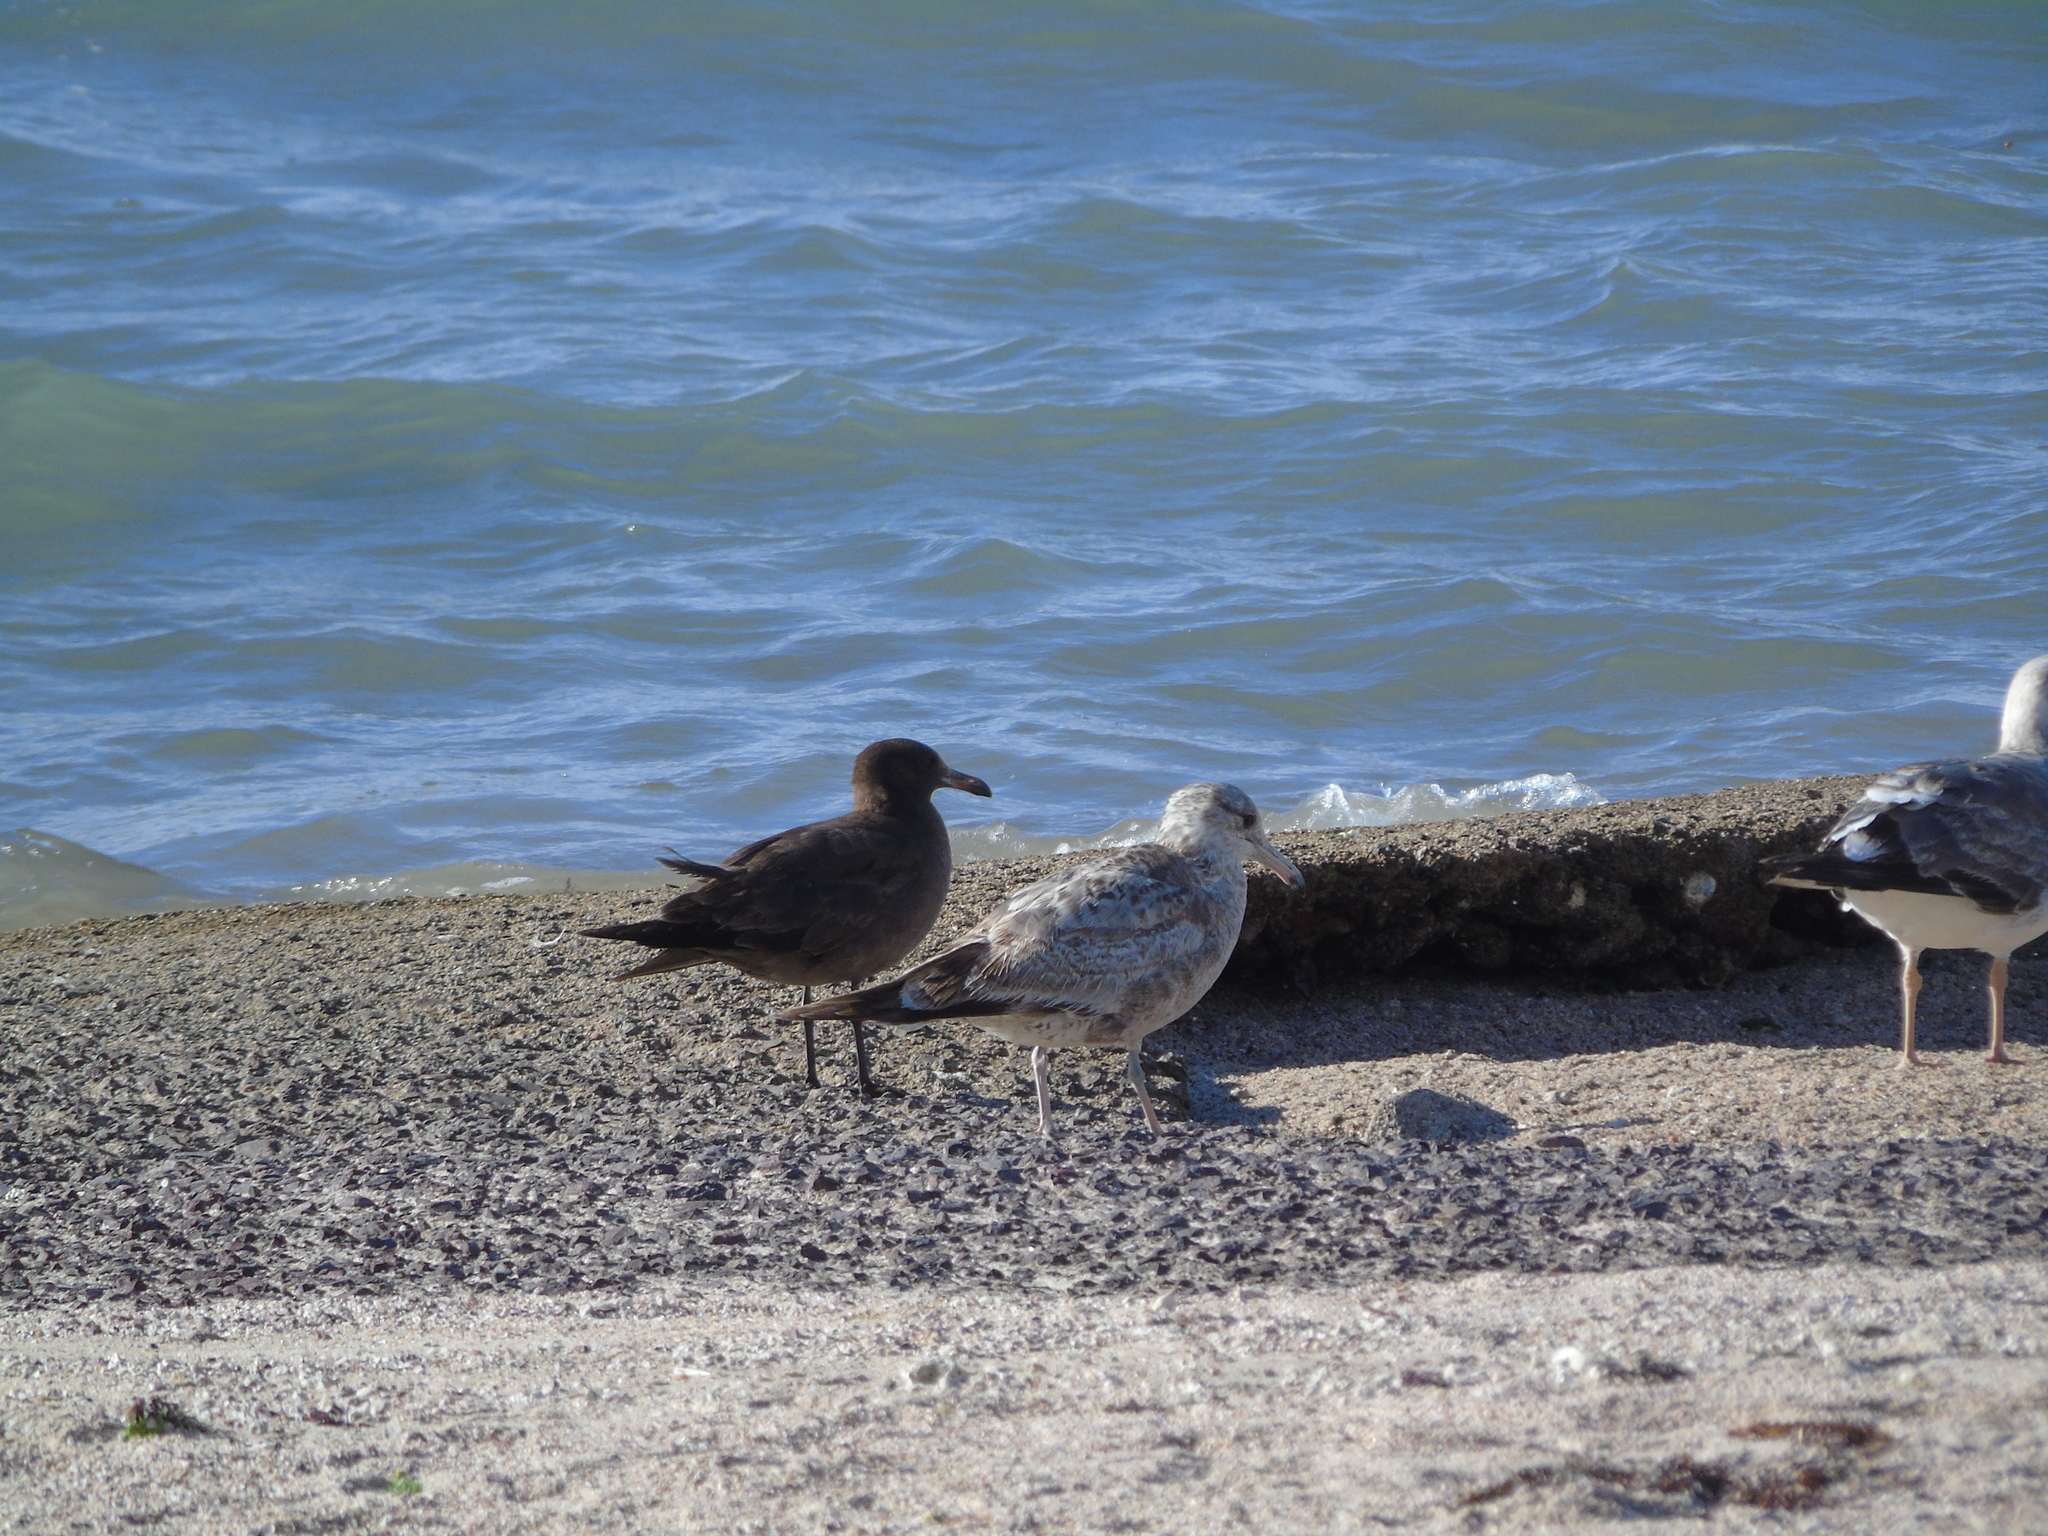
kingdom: Animalia
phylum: Chordata
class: Aves
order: Charadriiformes
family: Laridae
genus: Larus
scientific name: Larus heermanni
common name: Heermann's gull
